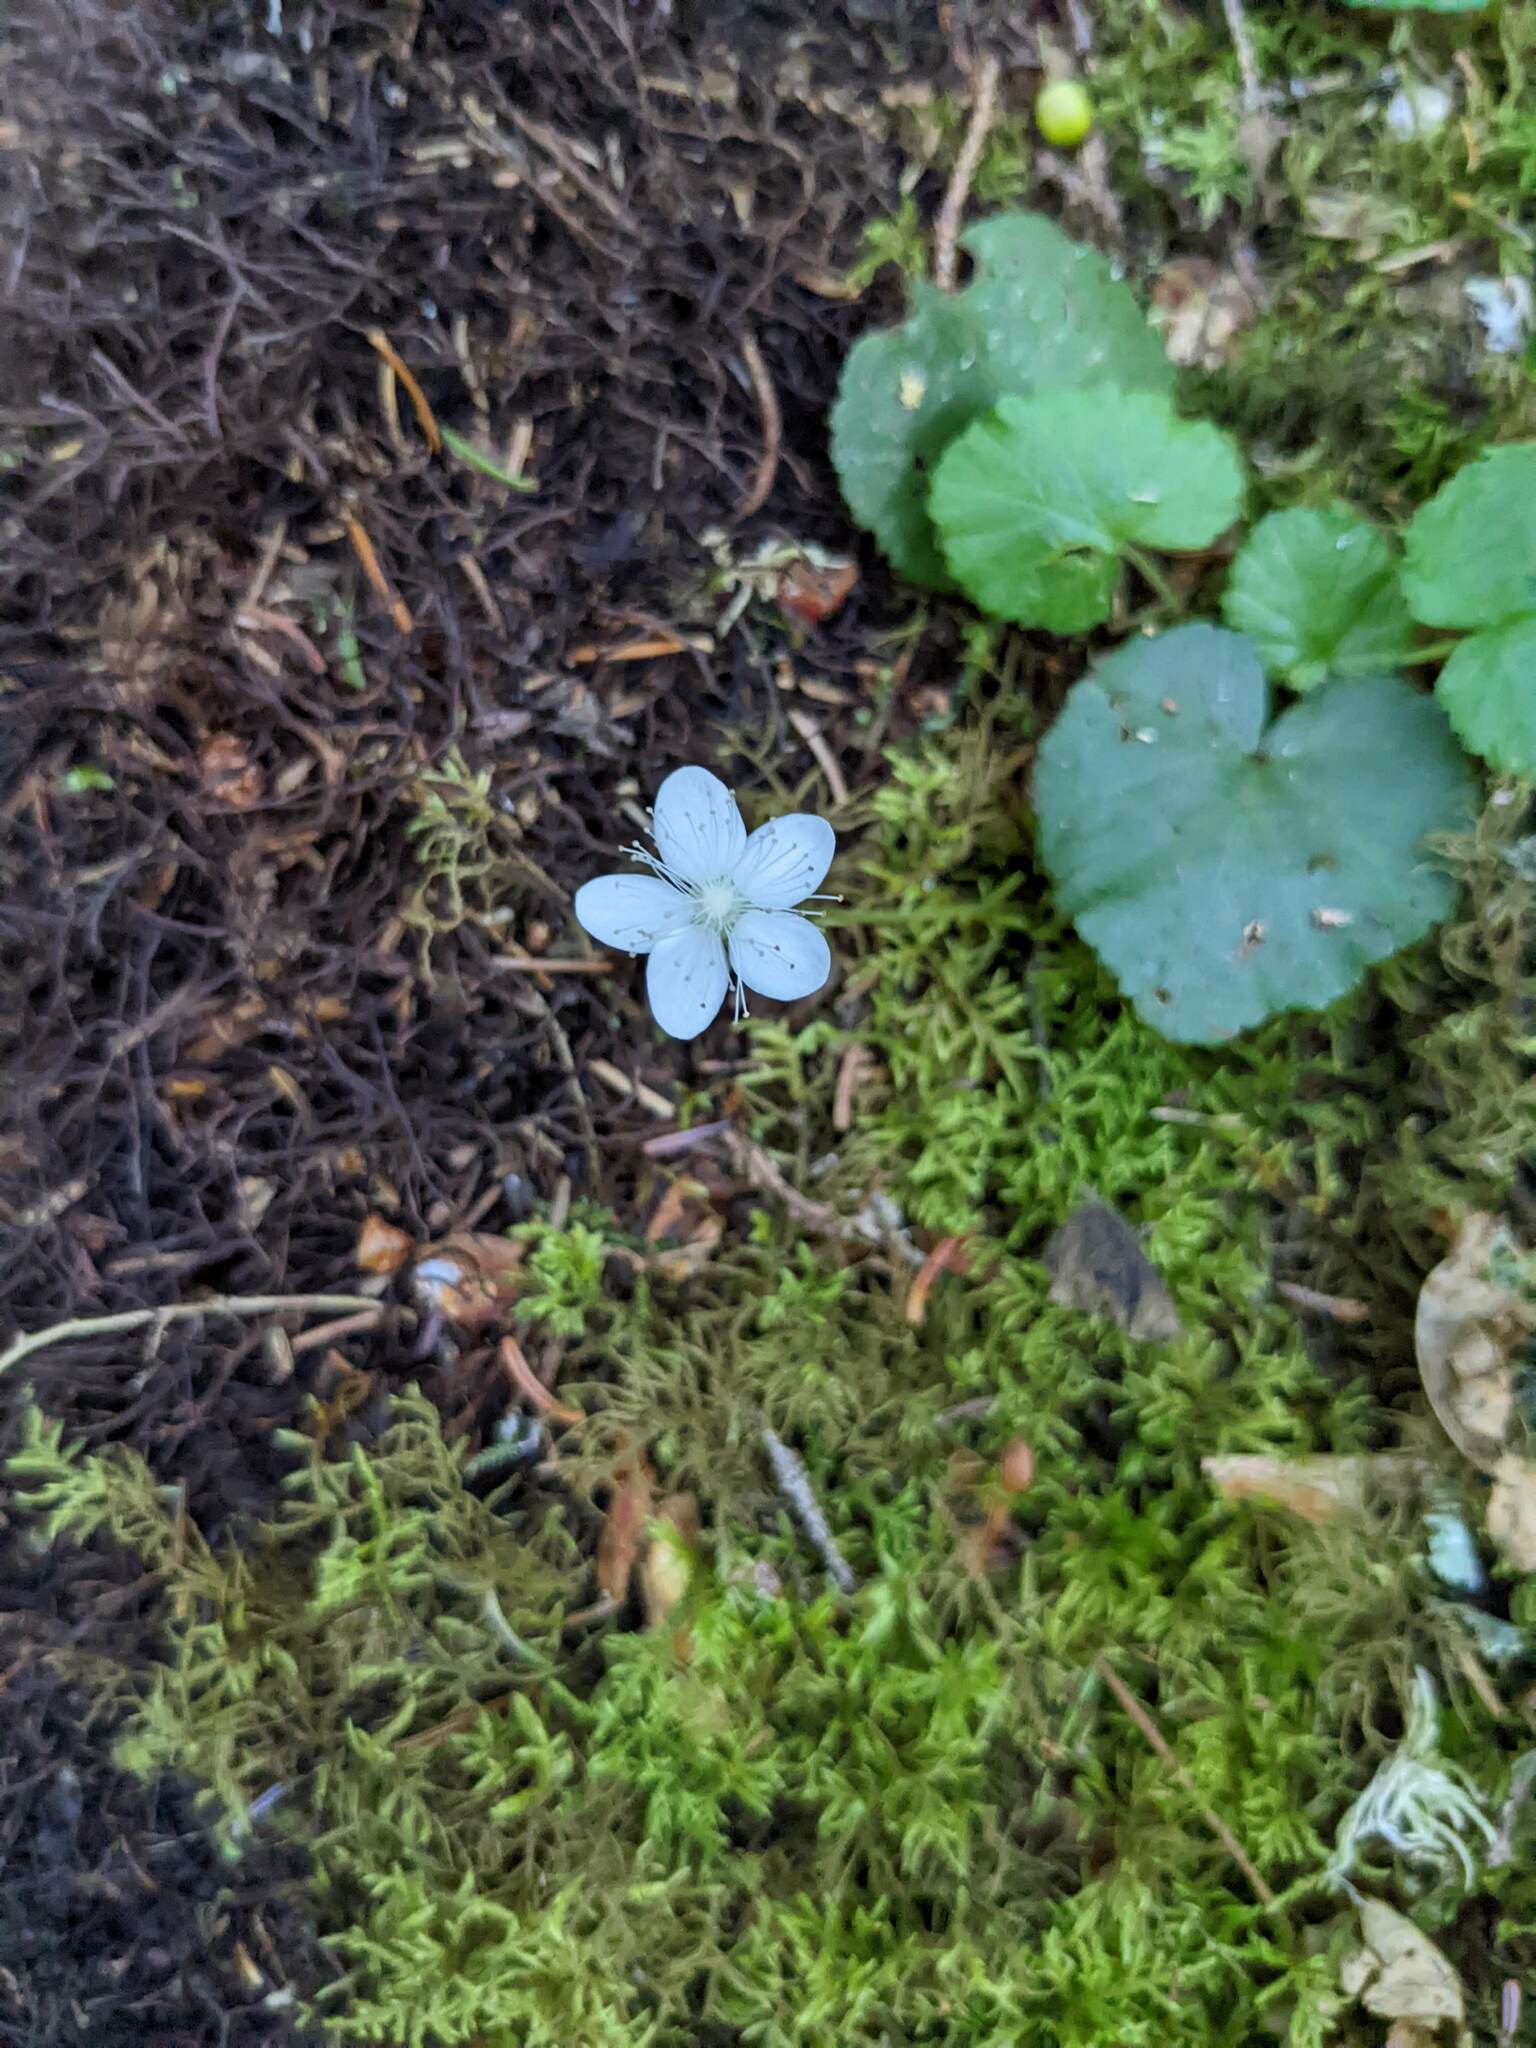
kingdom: Plantae
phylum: Tracheophyta
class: Magnoliopsida
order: Rosales
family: Rosaceae
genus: Dalibarda
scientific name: Dalibarda repens
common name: Dewdrop
